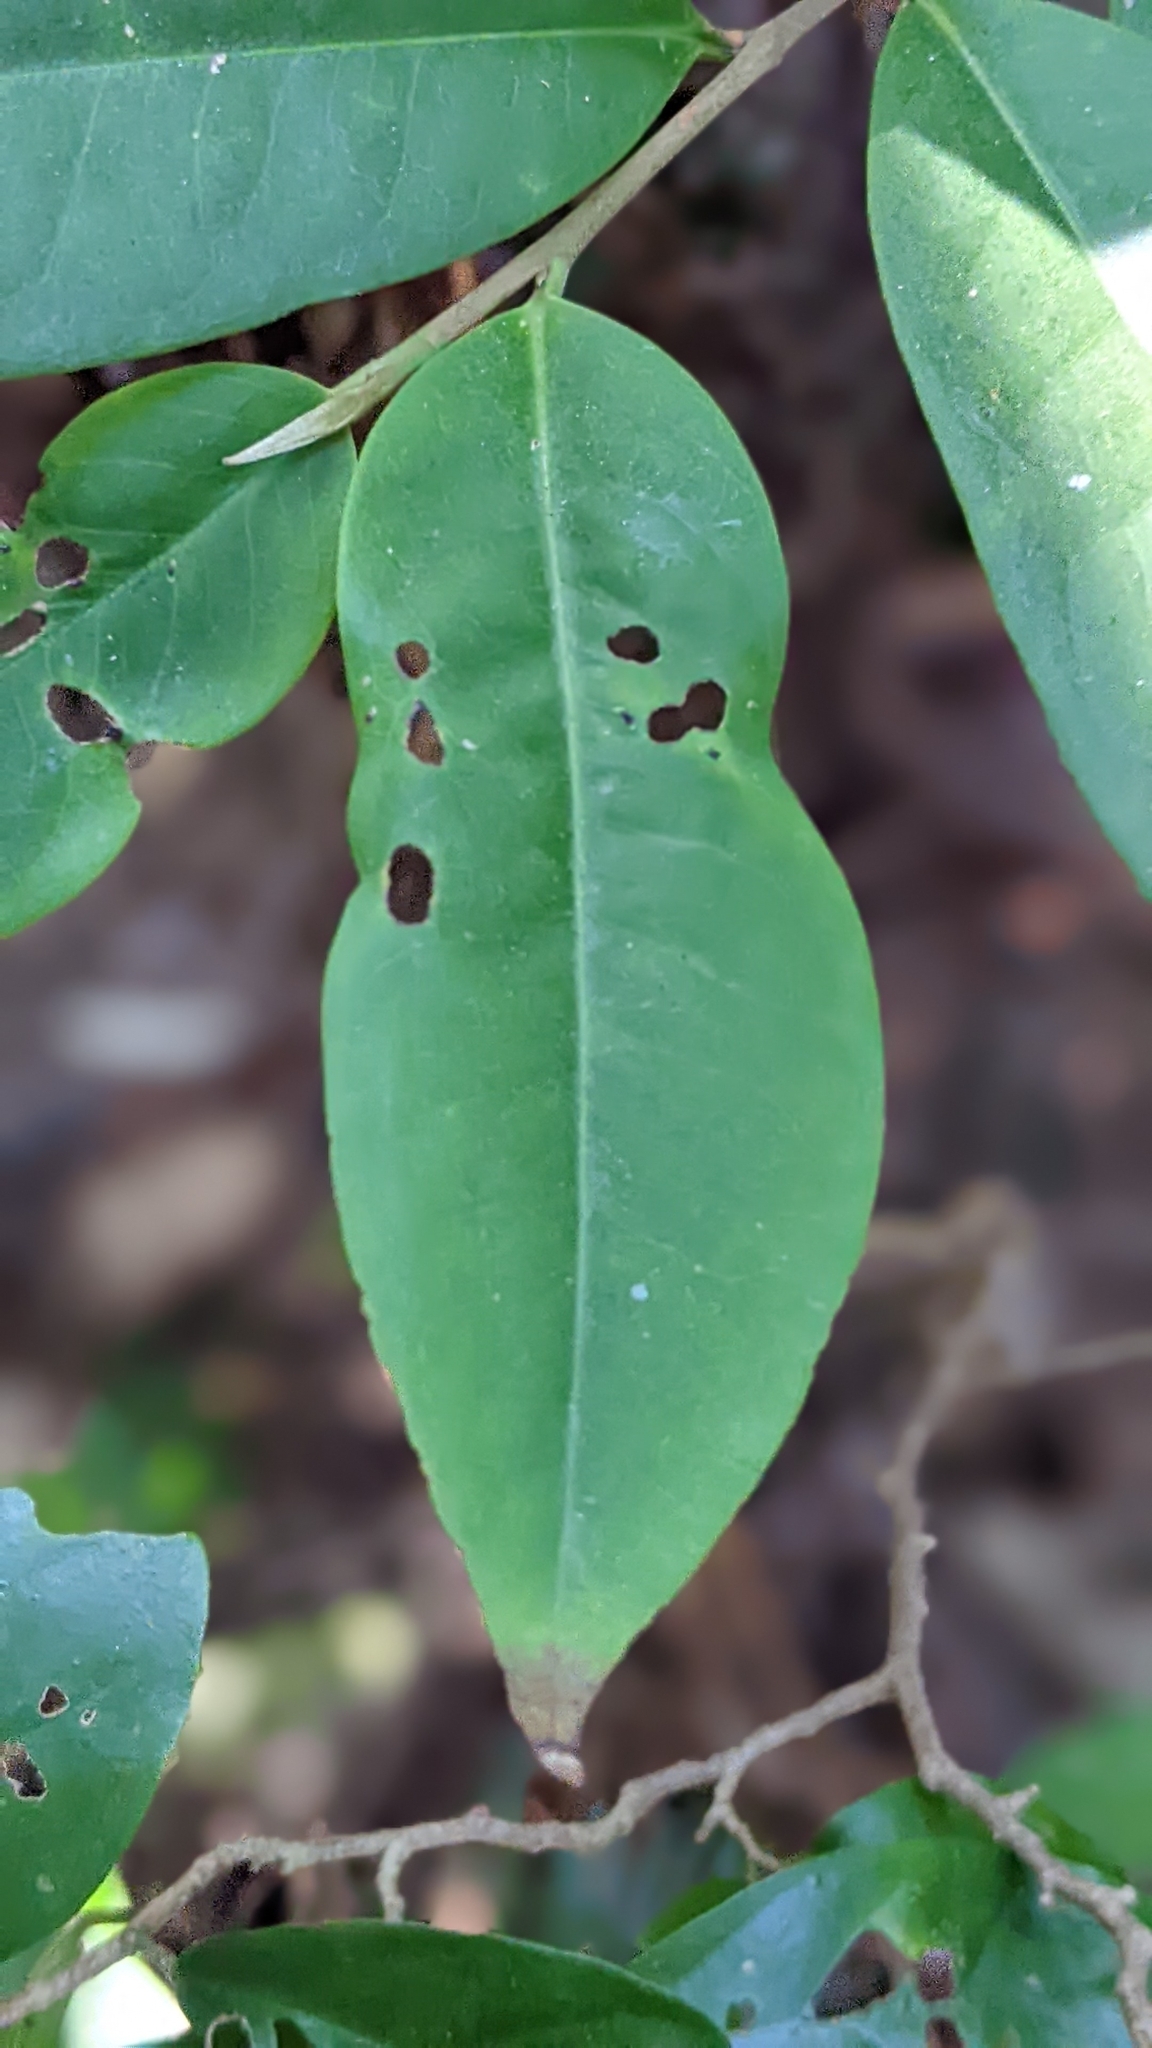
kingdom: Plantae
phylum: Tracheophyta
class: Magnoliopsida
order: Ericales
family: Pentaphylacaceae
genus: Adinandra
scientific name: Adinandra formosana
